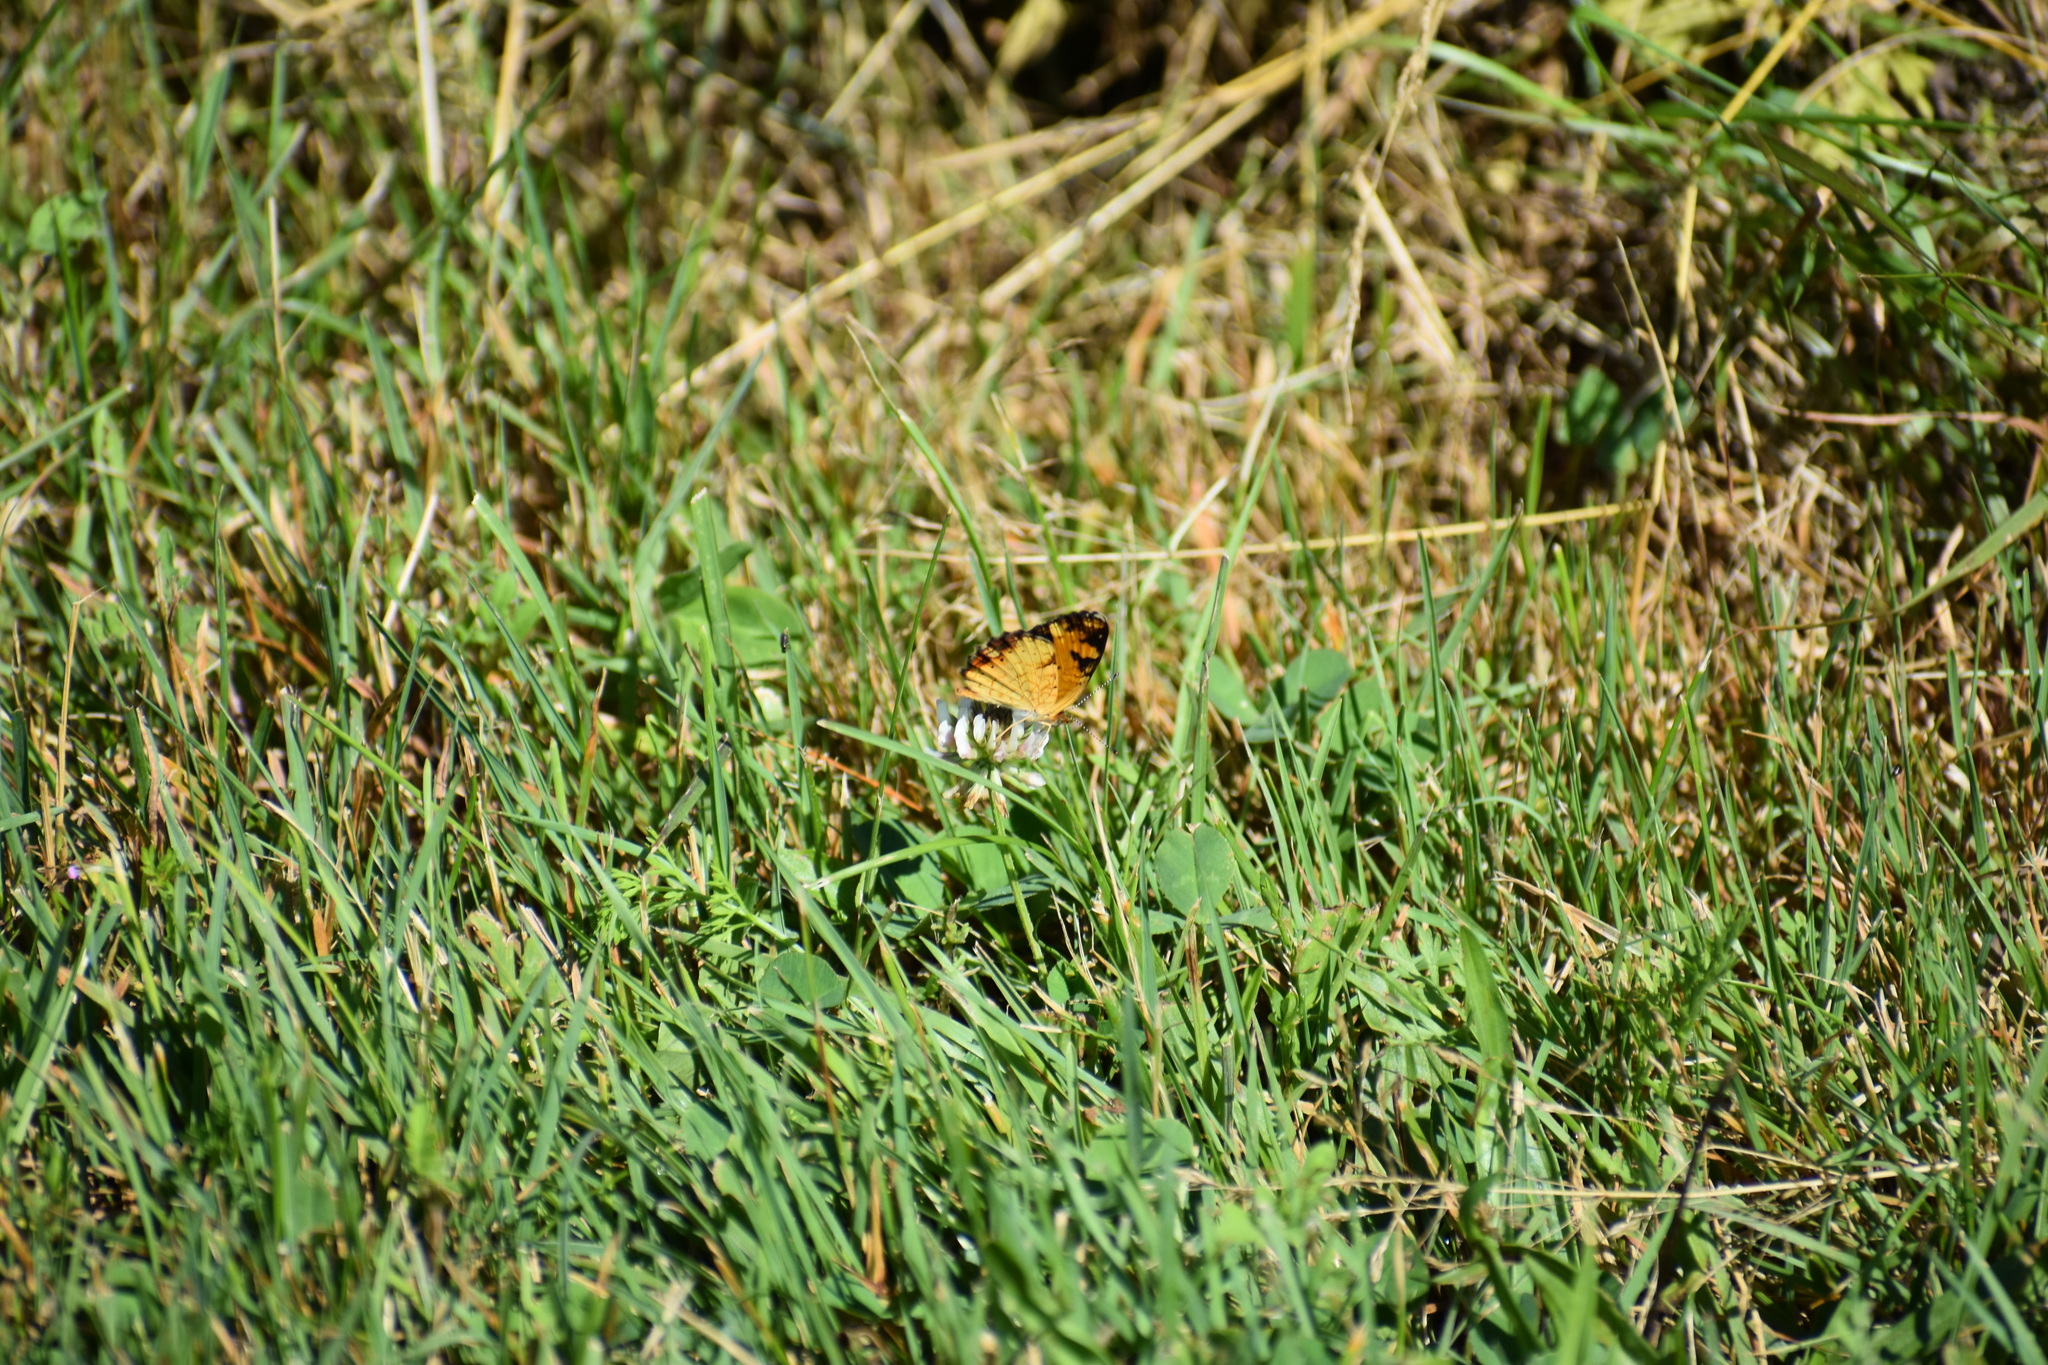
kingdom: Animalia
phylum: Arthropoda
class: Insecta
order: Lepidoptera
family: Nymphalidae
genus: Phyciodes
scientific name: Phyciodes tharos
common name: Pearl crescent
